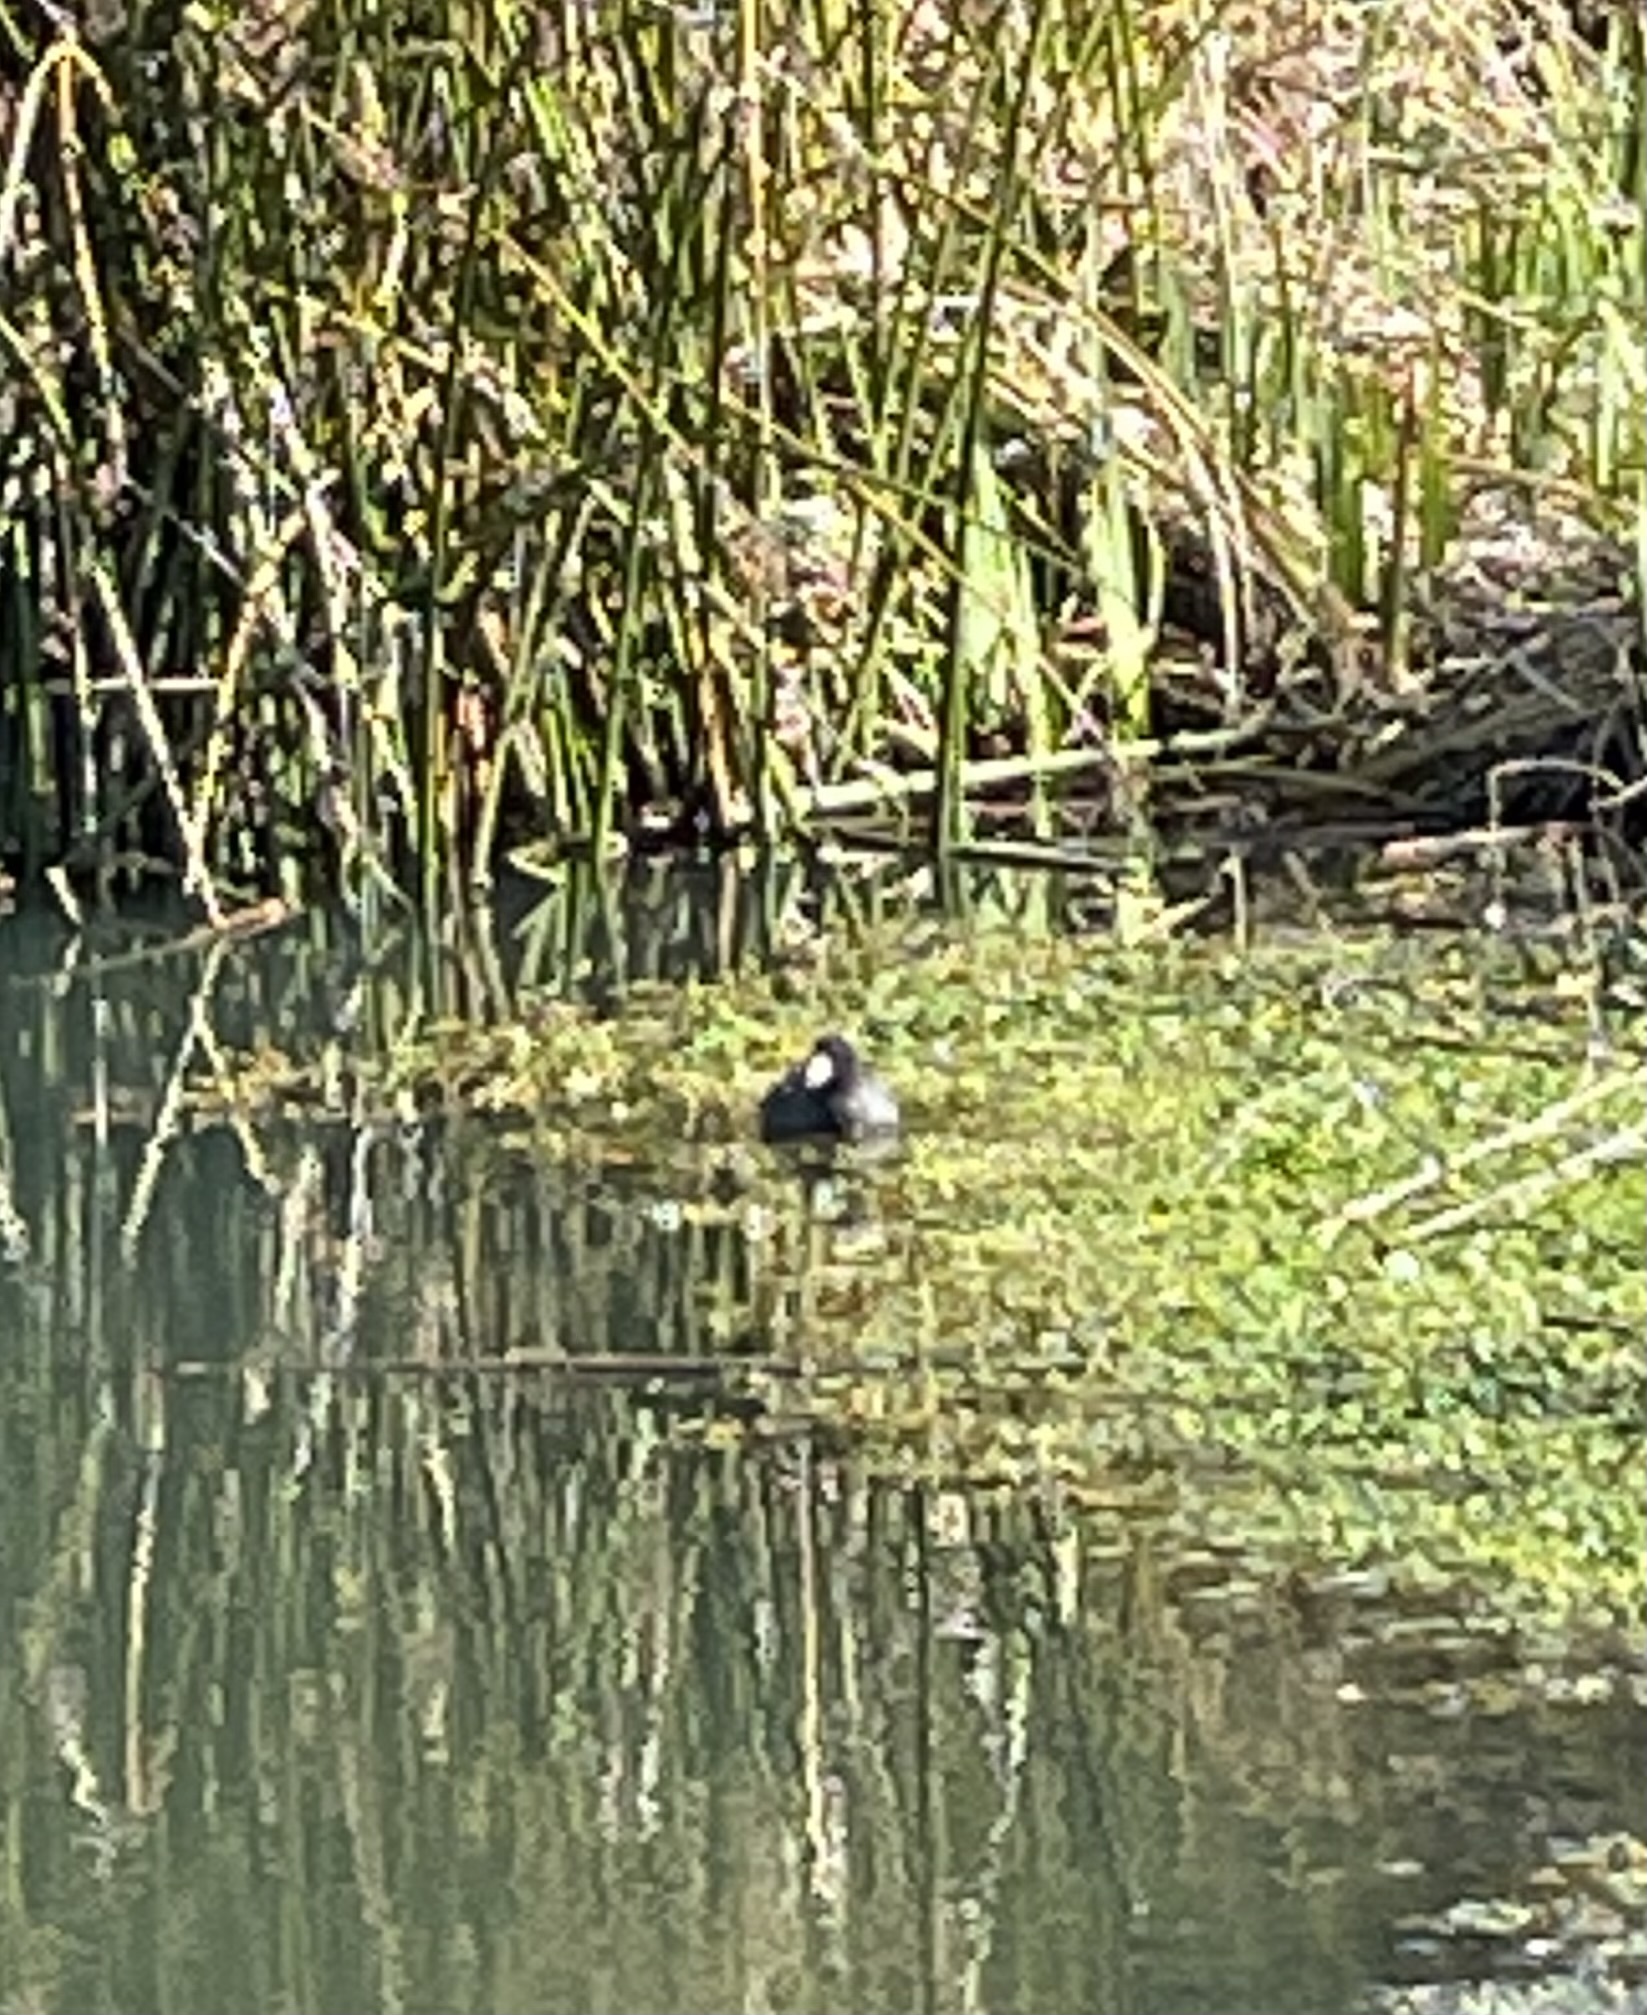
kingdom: Animalia
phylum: Chordata
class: Aves
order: Gruiformes
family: Rallidae
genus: Fulica
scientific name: Fulica americana
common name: American coot
